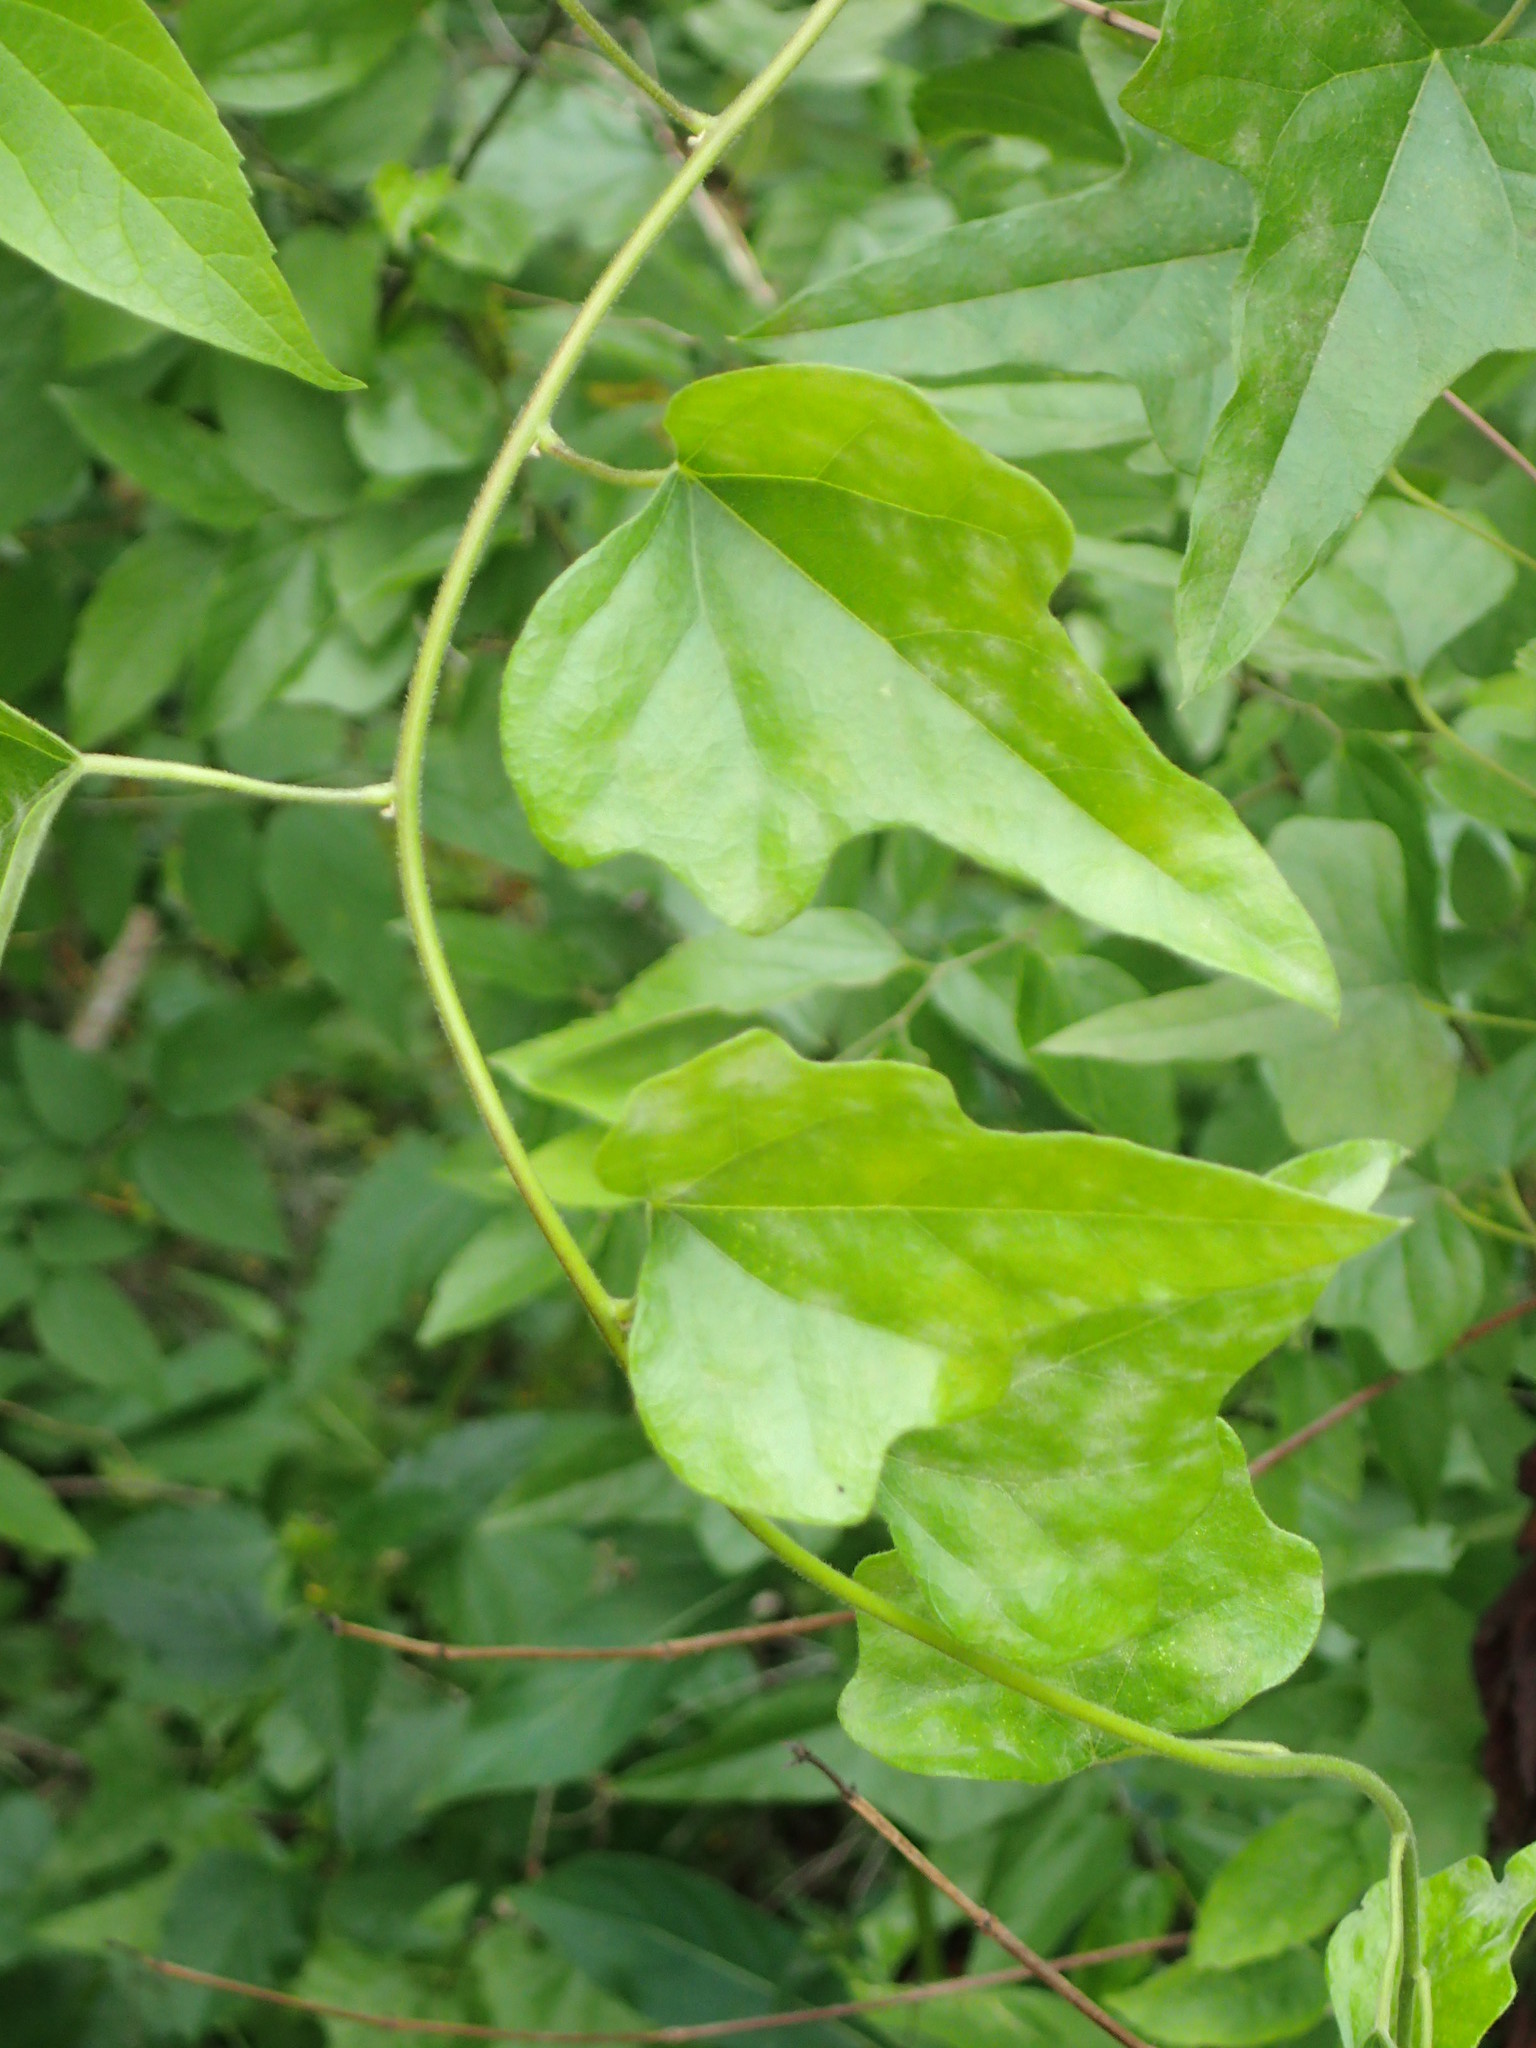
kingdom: Plantae
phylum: Tracheophyta
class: Magnoliopsida
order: Ranunculales
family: Menispermaceae
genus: Cocculus
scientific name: Cocculus carolinus
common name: Carolina moonseed
